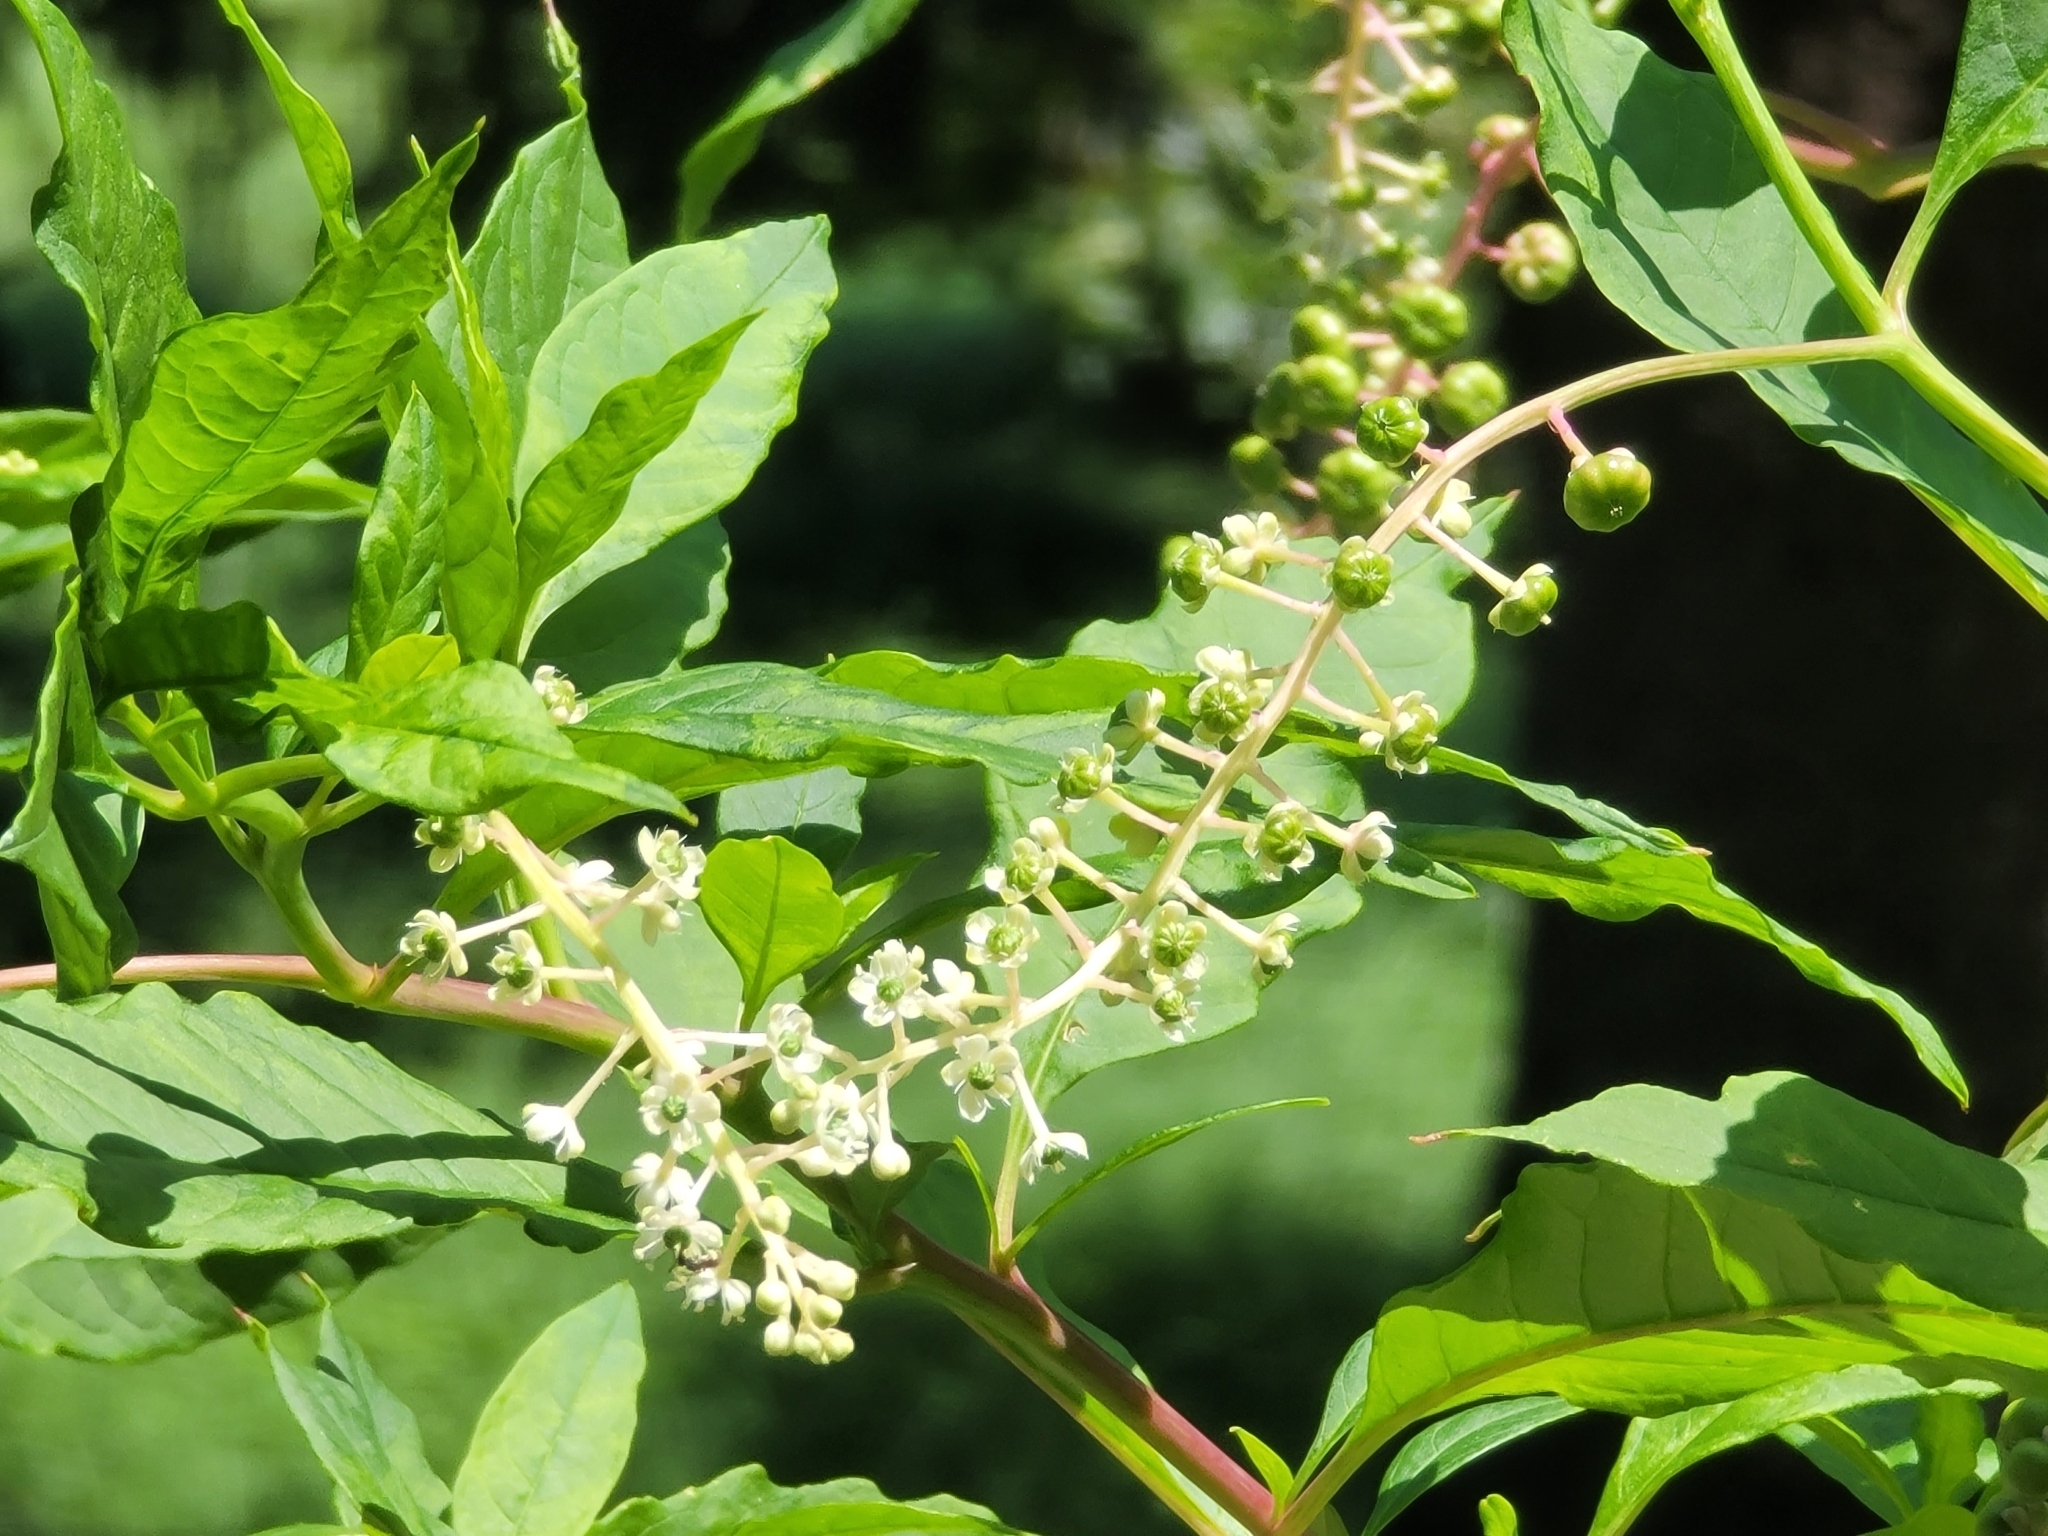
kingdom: Plantae
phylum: Tracheophyta
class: Magnoliopsida
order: Caryophyllales
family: Phytolaccaceae
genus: Phytolacca
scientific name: Phytolacca americana
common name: American pokeweed
